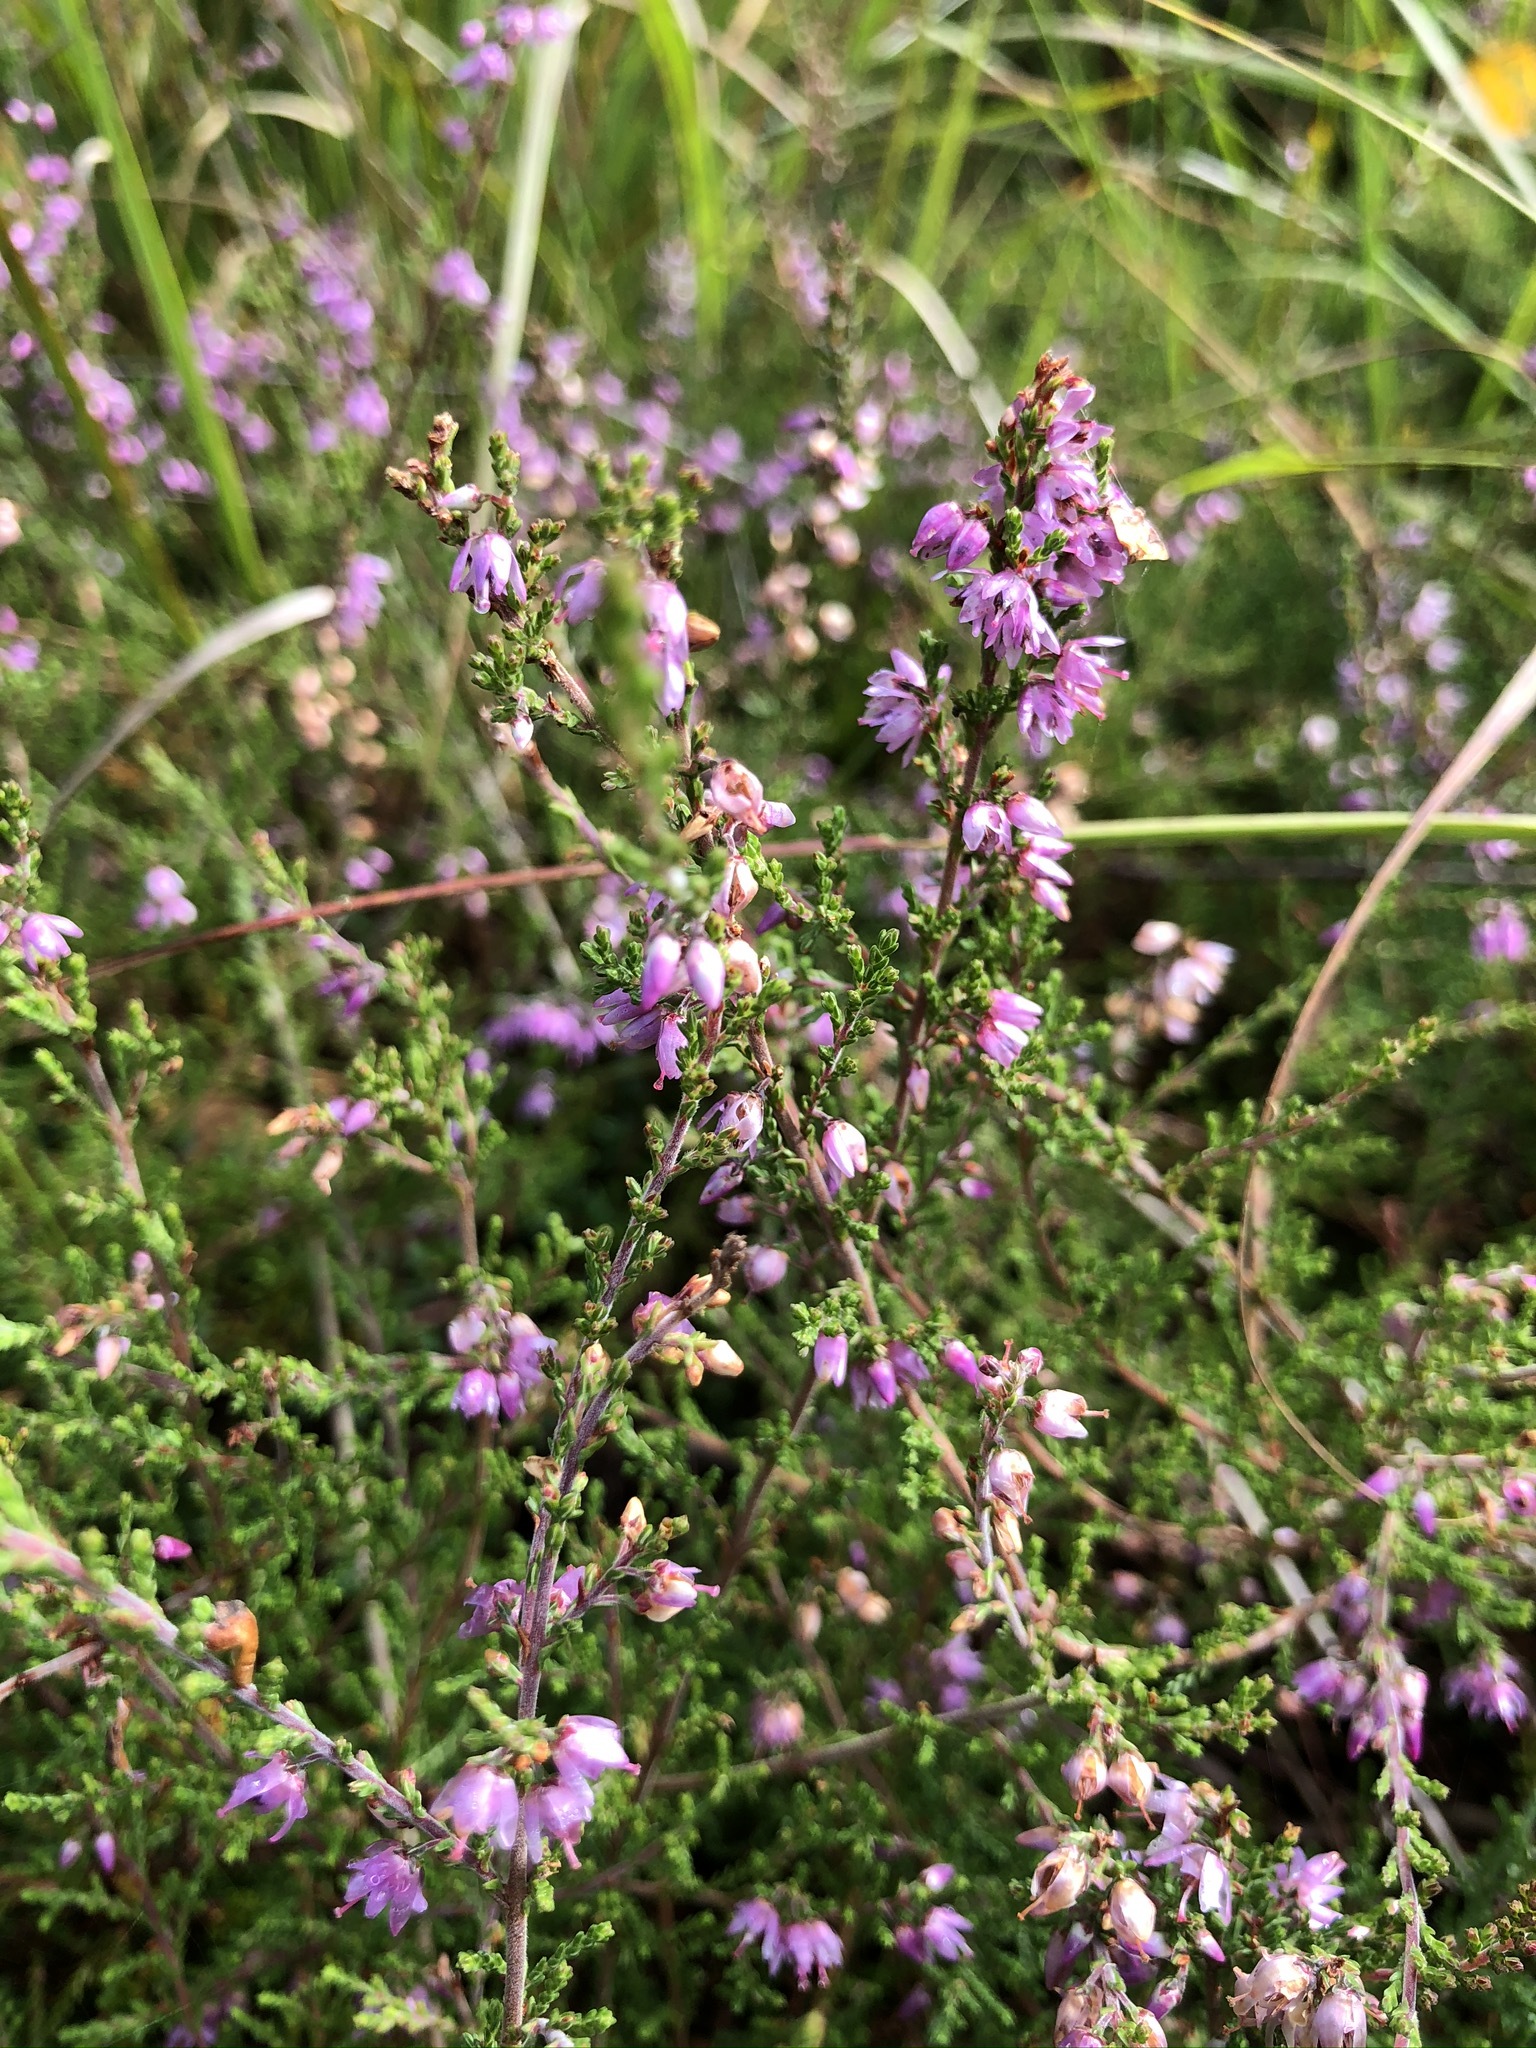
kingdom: Plantae
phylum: Tracheophyta
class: Magnoliopsida
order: Ericales
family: Ericaceae
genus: Calluna
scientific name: Calluna vulgaris
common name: Heather
